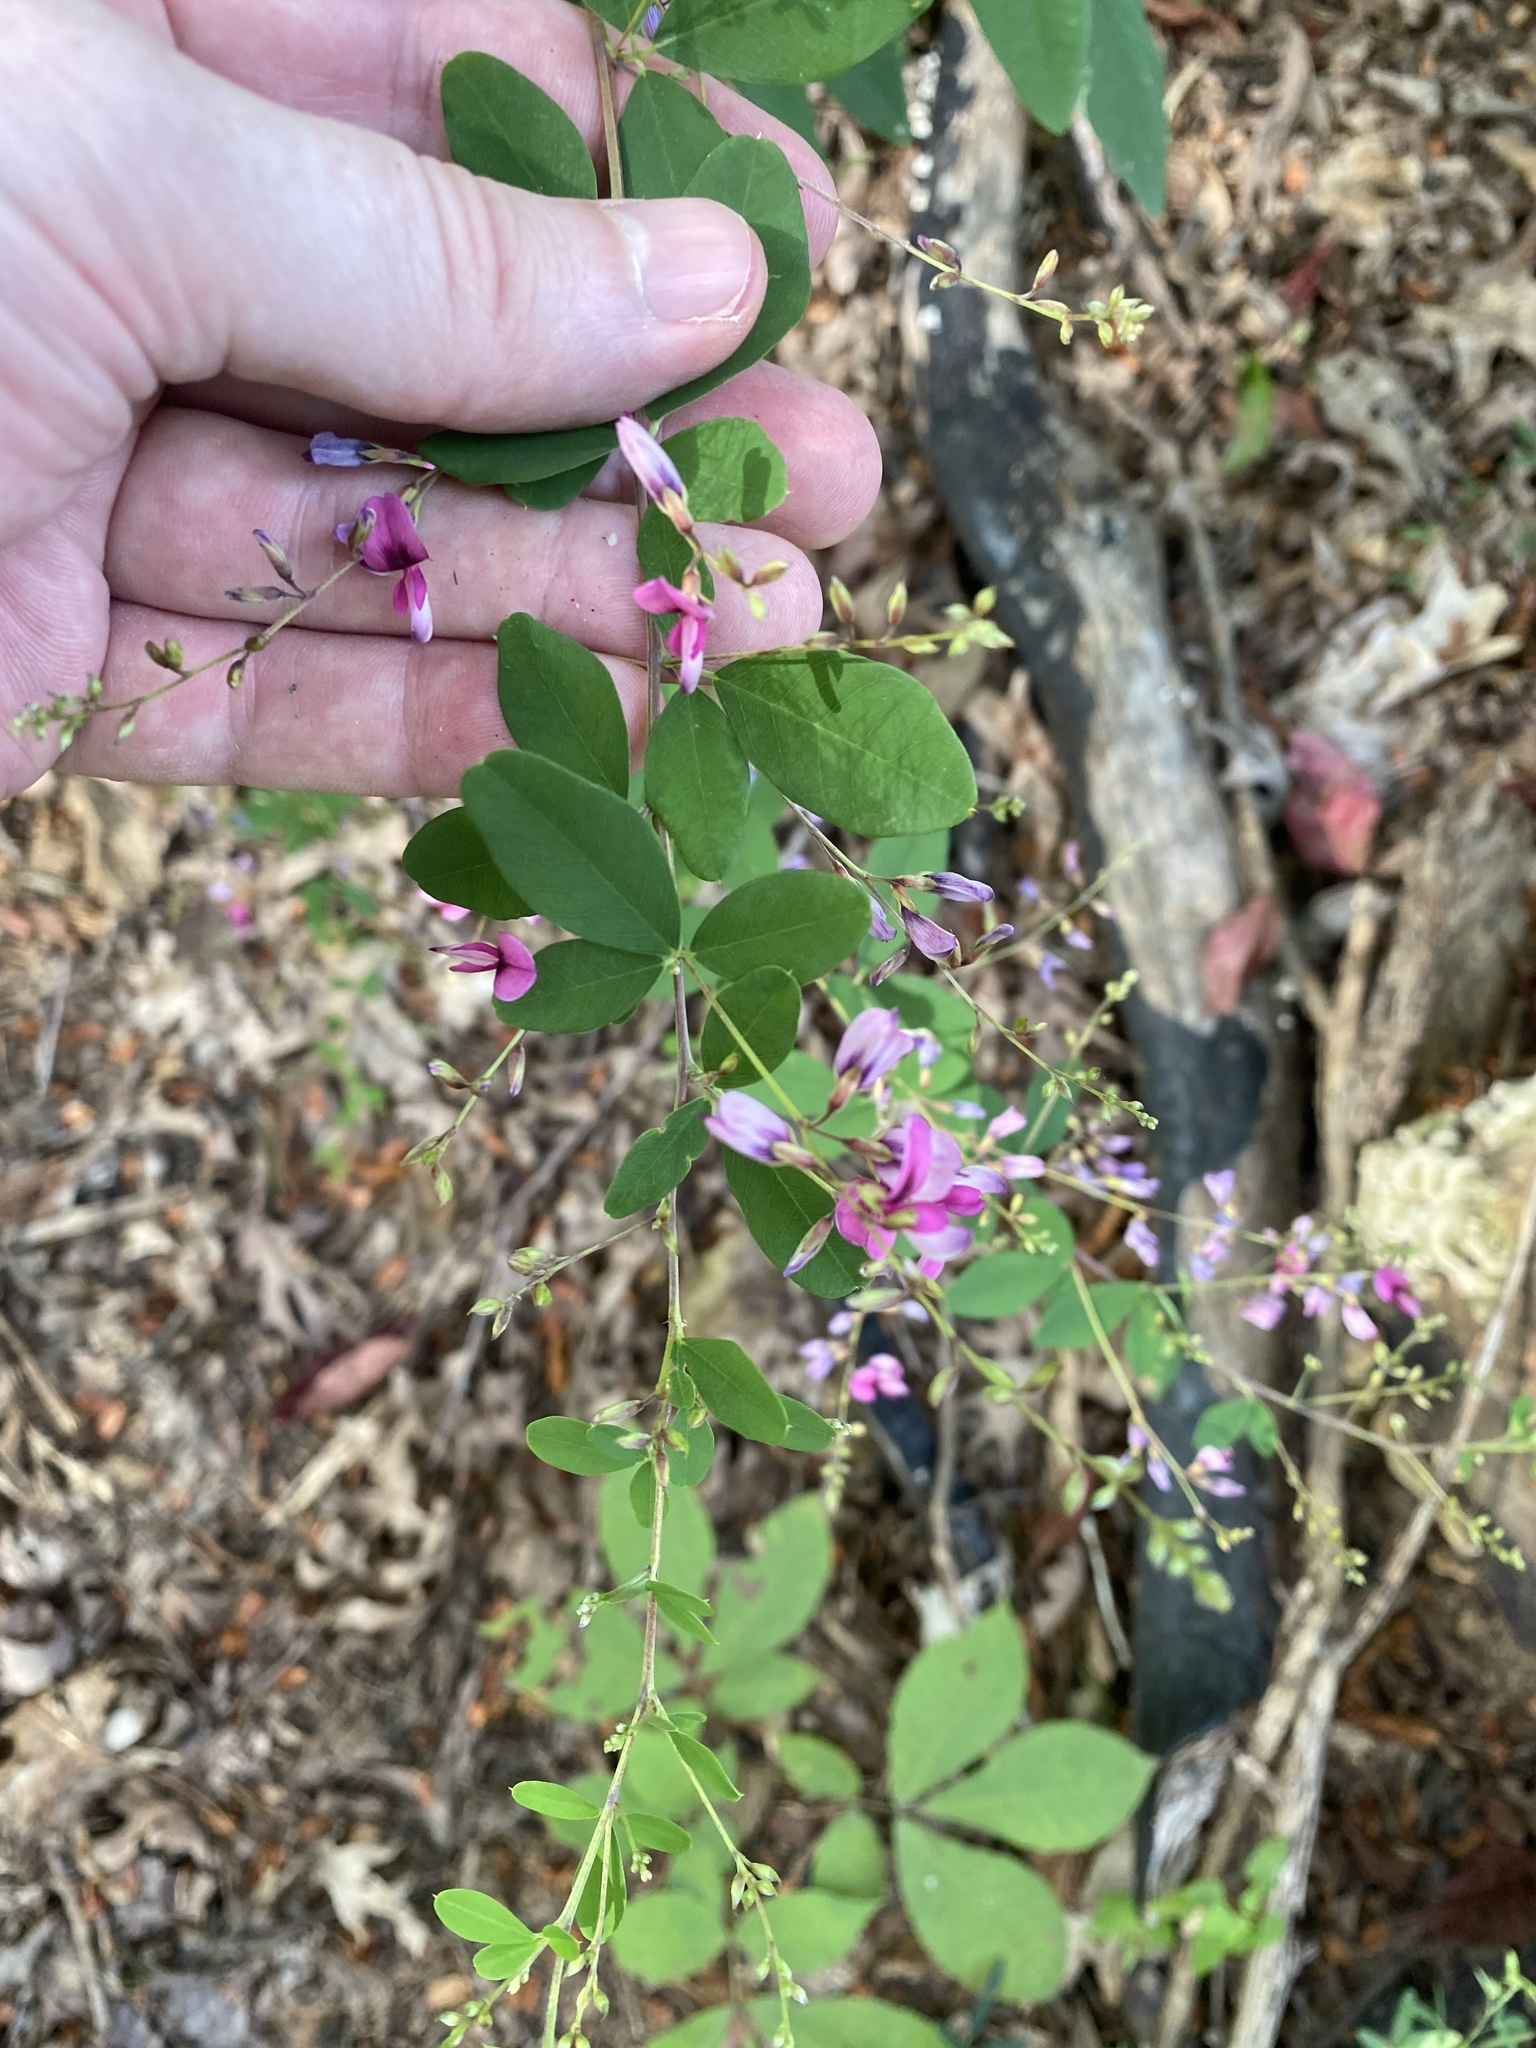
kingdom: Plantae
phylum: Tracheophyta
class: Magnoliopsida
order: Fabales
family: Fabaceae
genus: Lespedeza
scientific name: Lespedeza bicolor
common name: Shrub lespedeza
